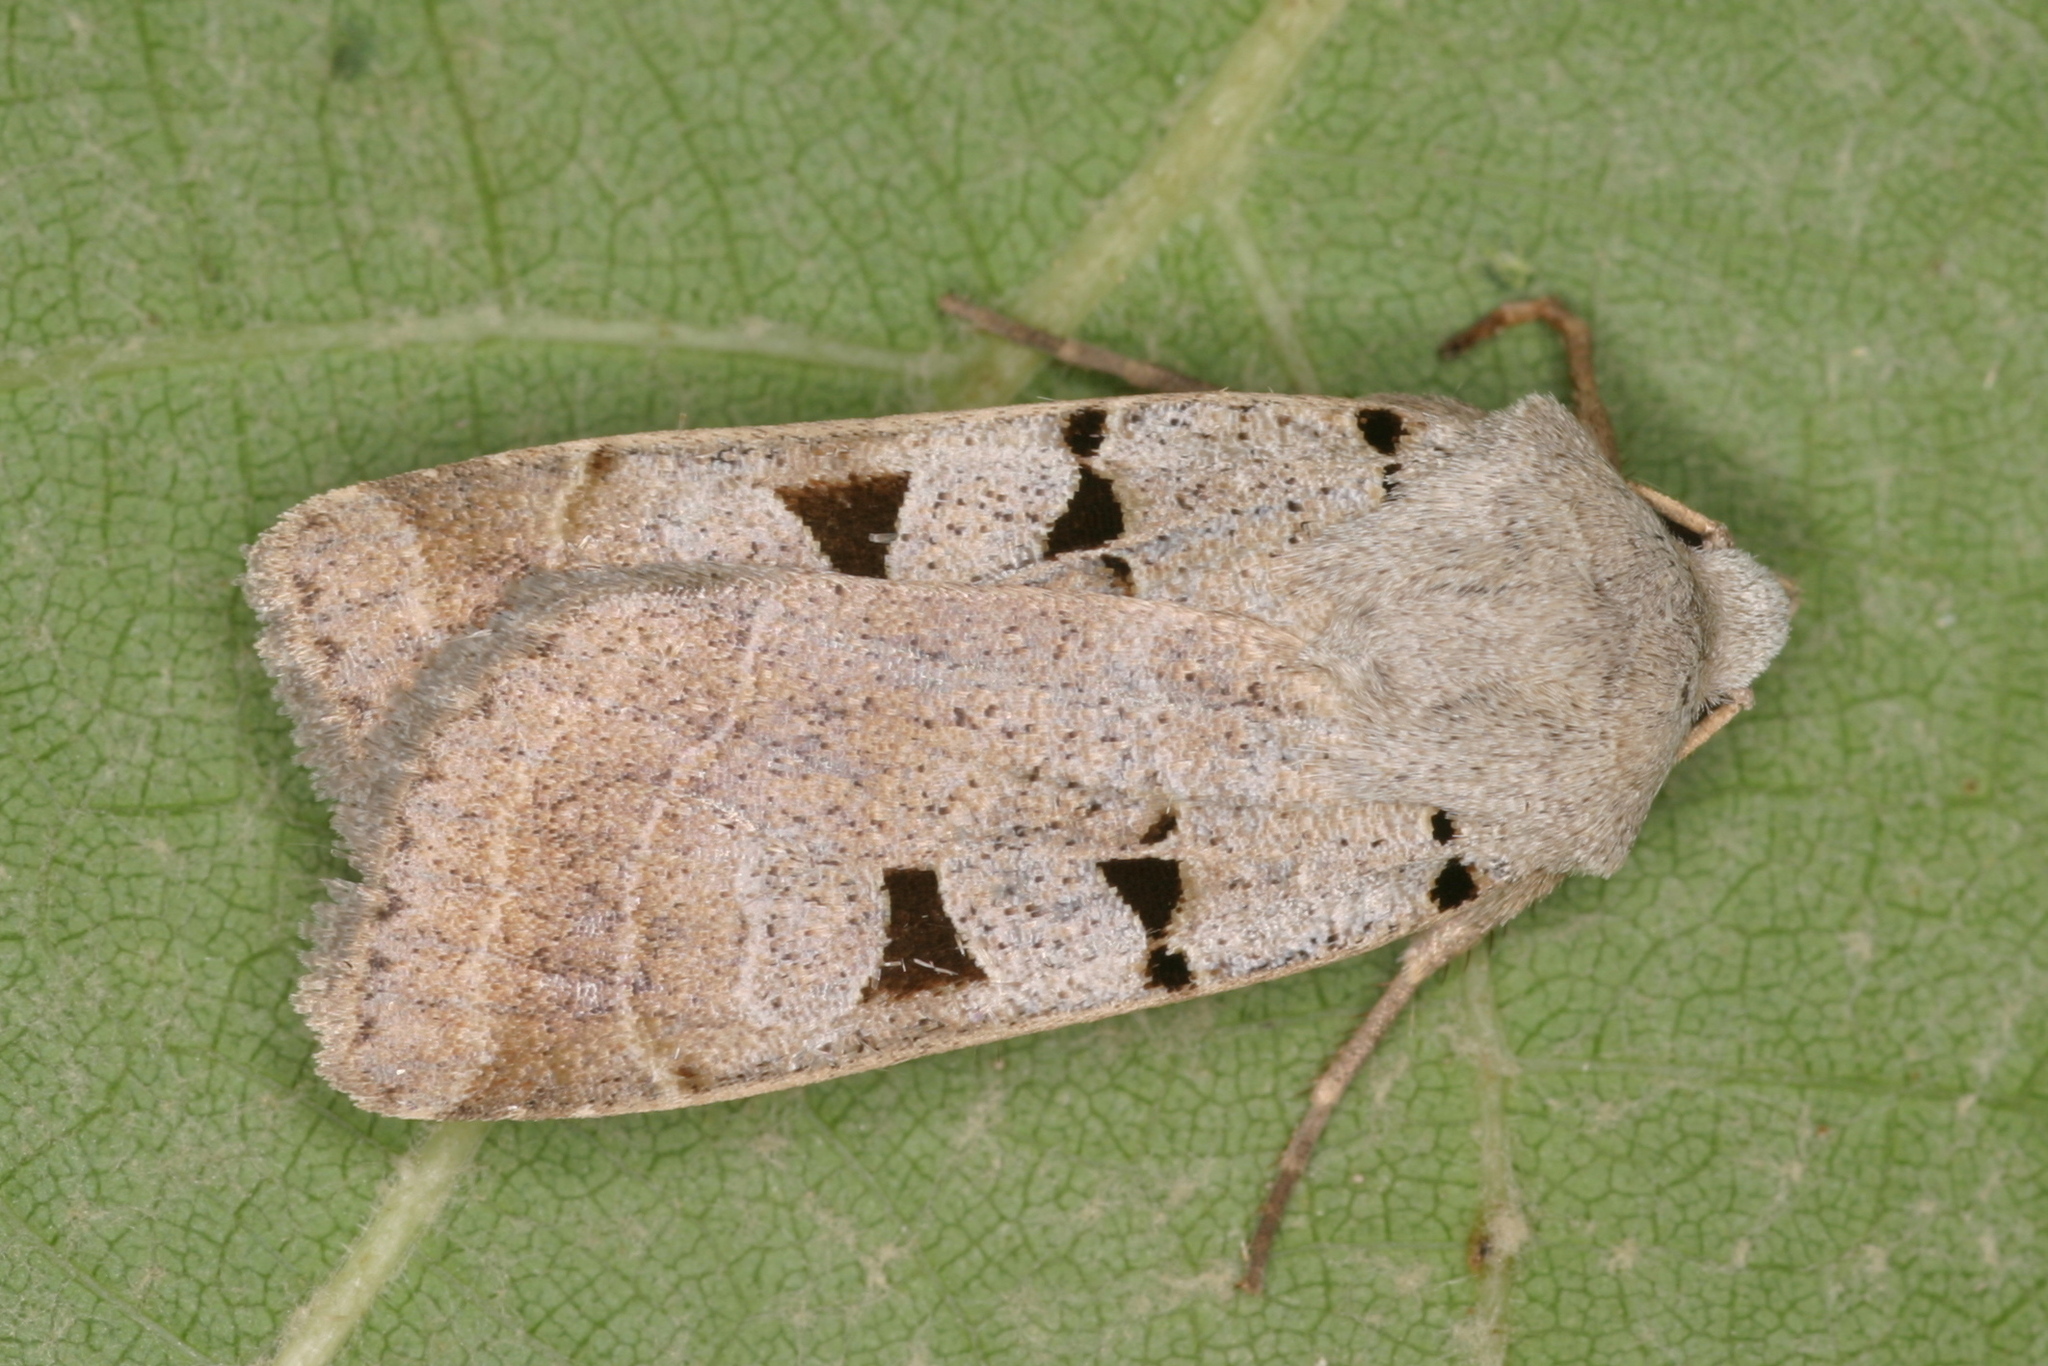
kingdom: Animalia
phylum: Arthropoda
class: Insecta
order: Lepidoptera
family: Noctuidae
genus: Eugnorisma
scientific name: Eugnorisma glareosa
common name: Autumnal rustic
